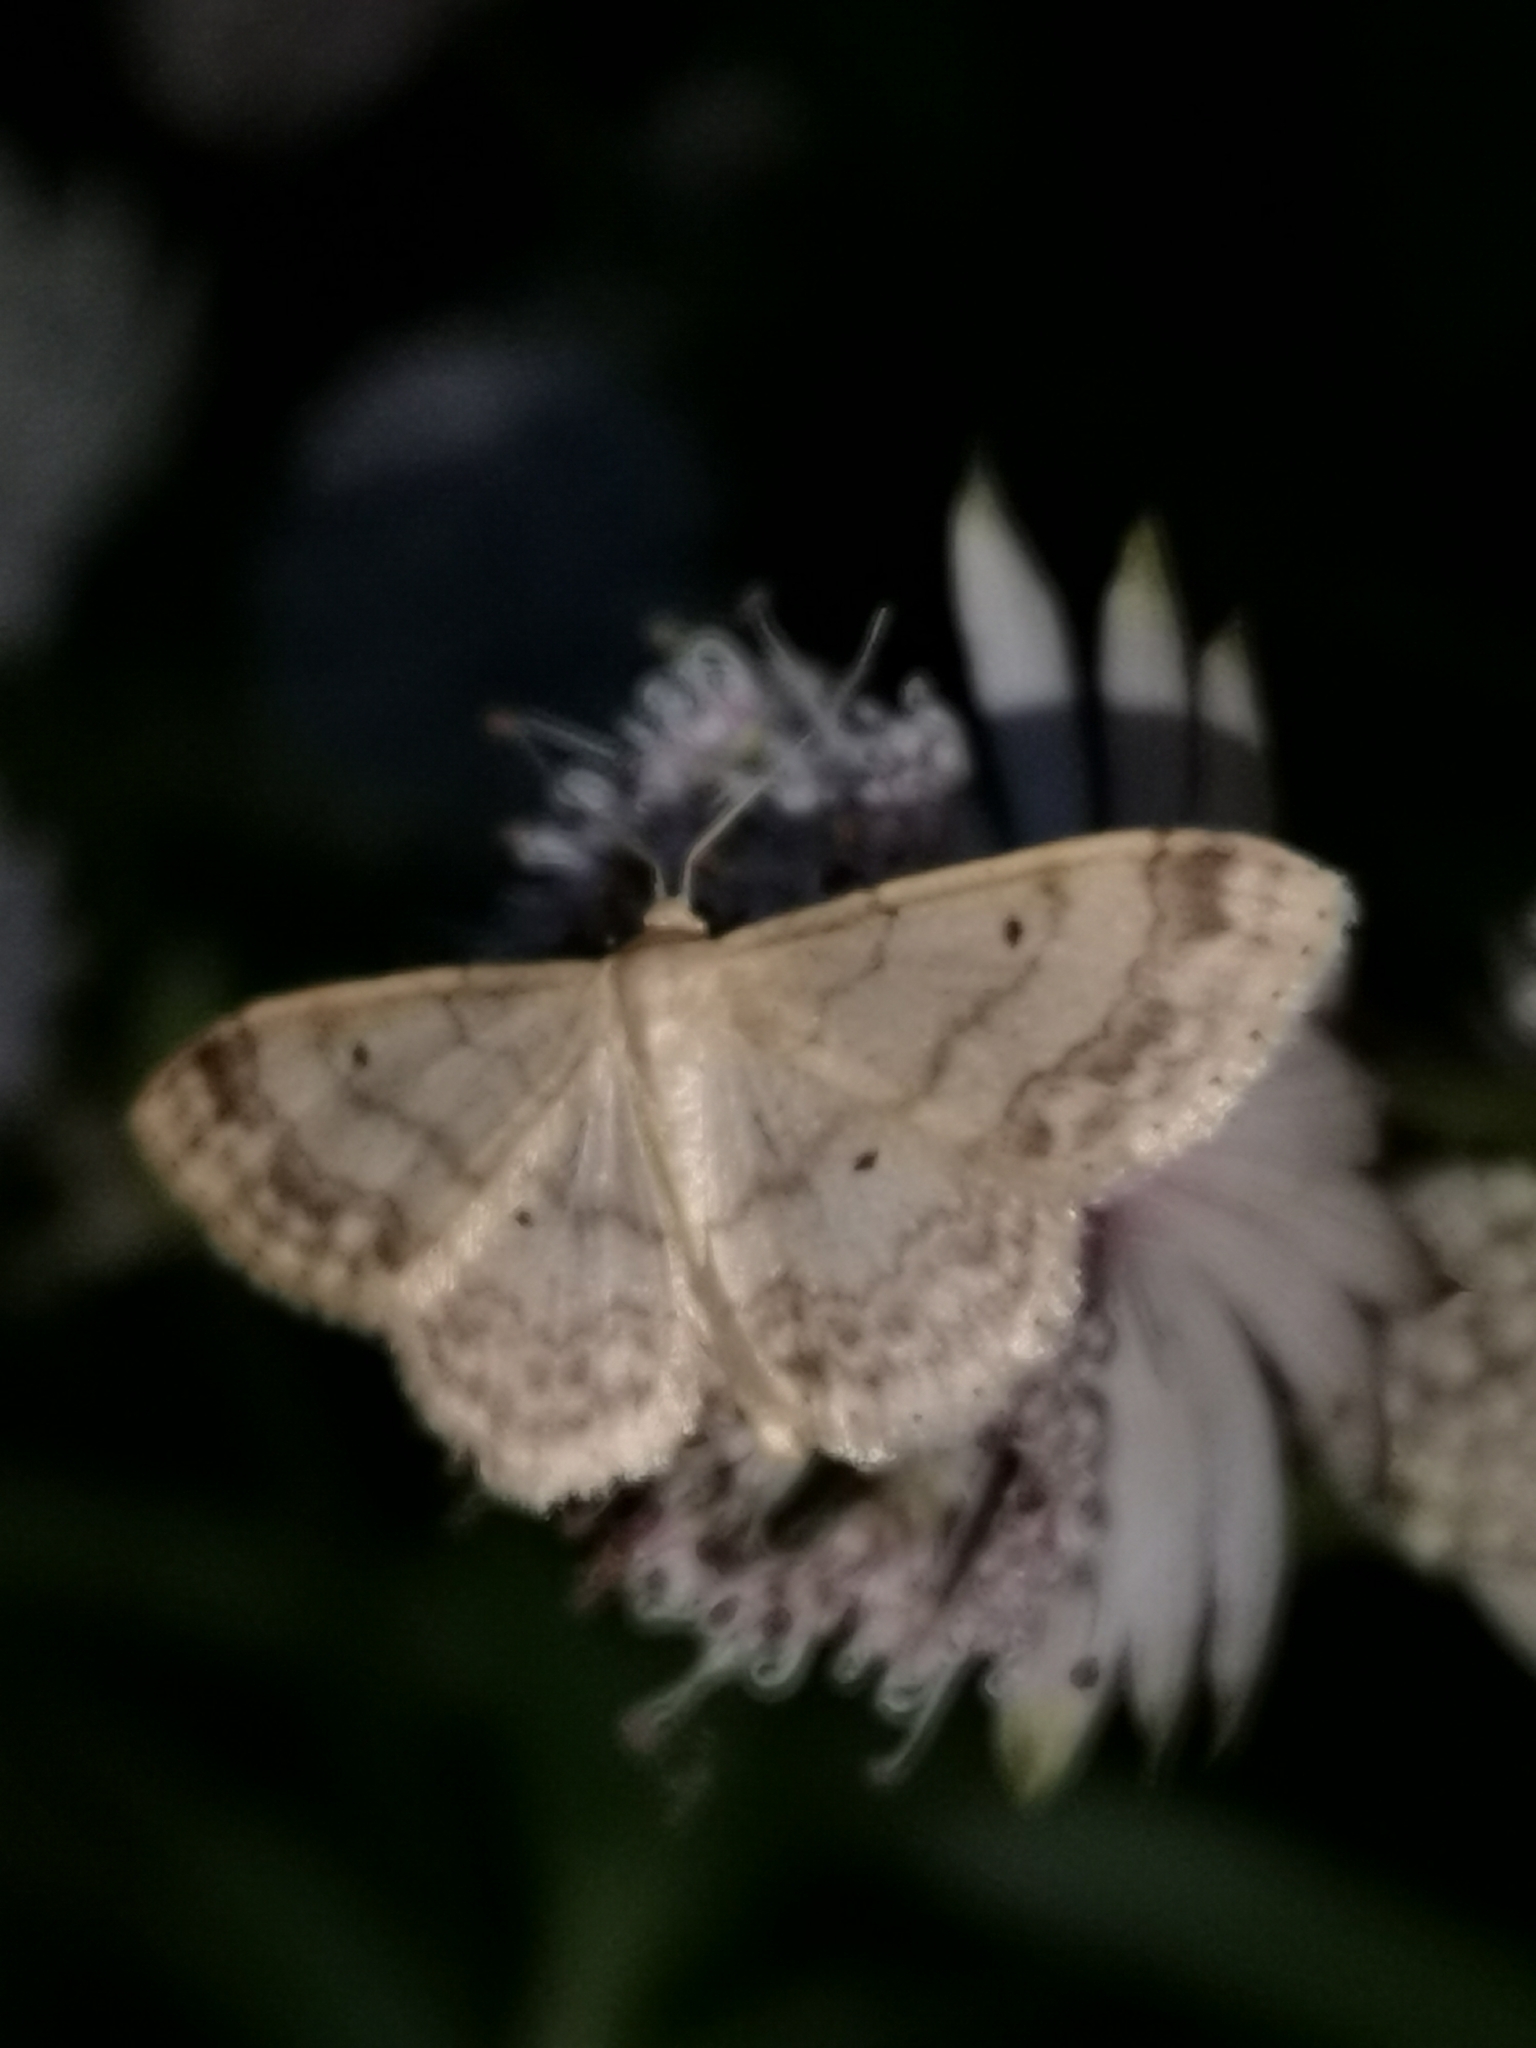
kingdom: Animalia
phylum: Arthropoda
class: Insecta
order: Lepidoptera
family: Geometridae
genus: Idaea
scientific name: Idaea biselata
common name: Small fan-footed wave
